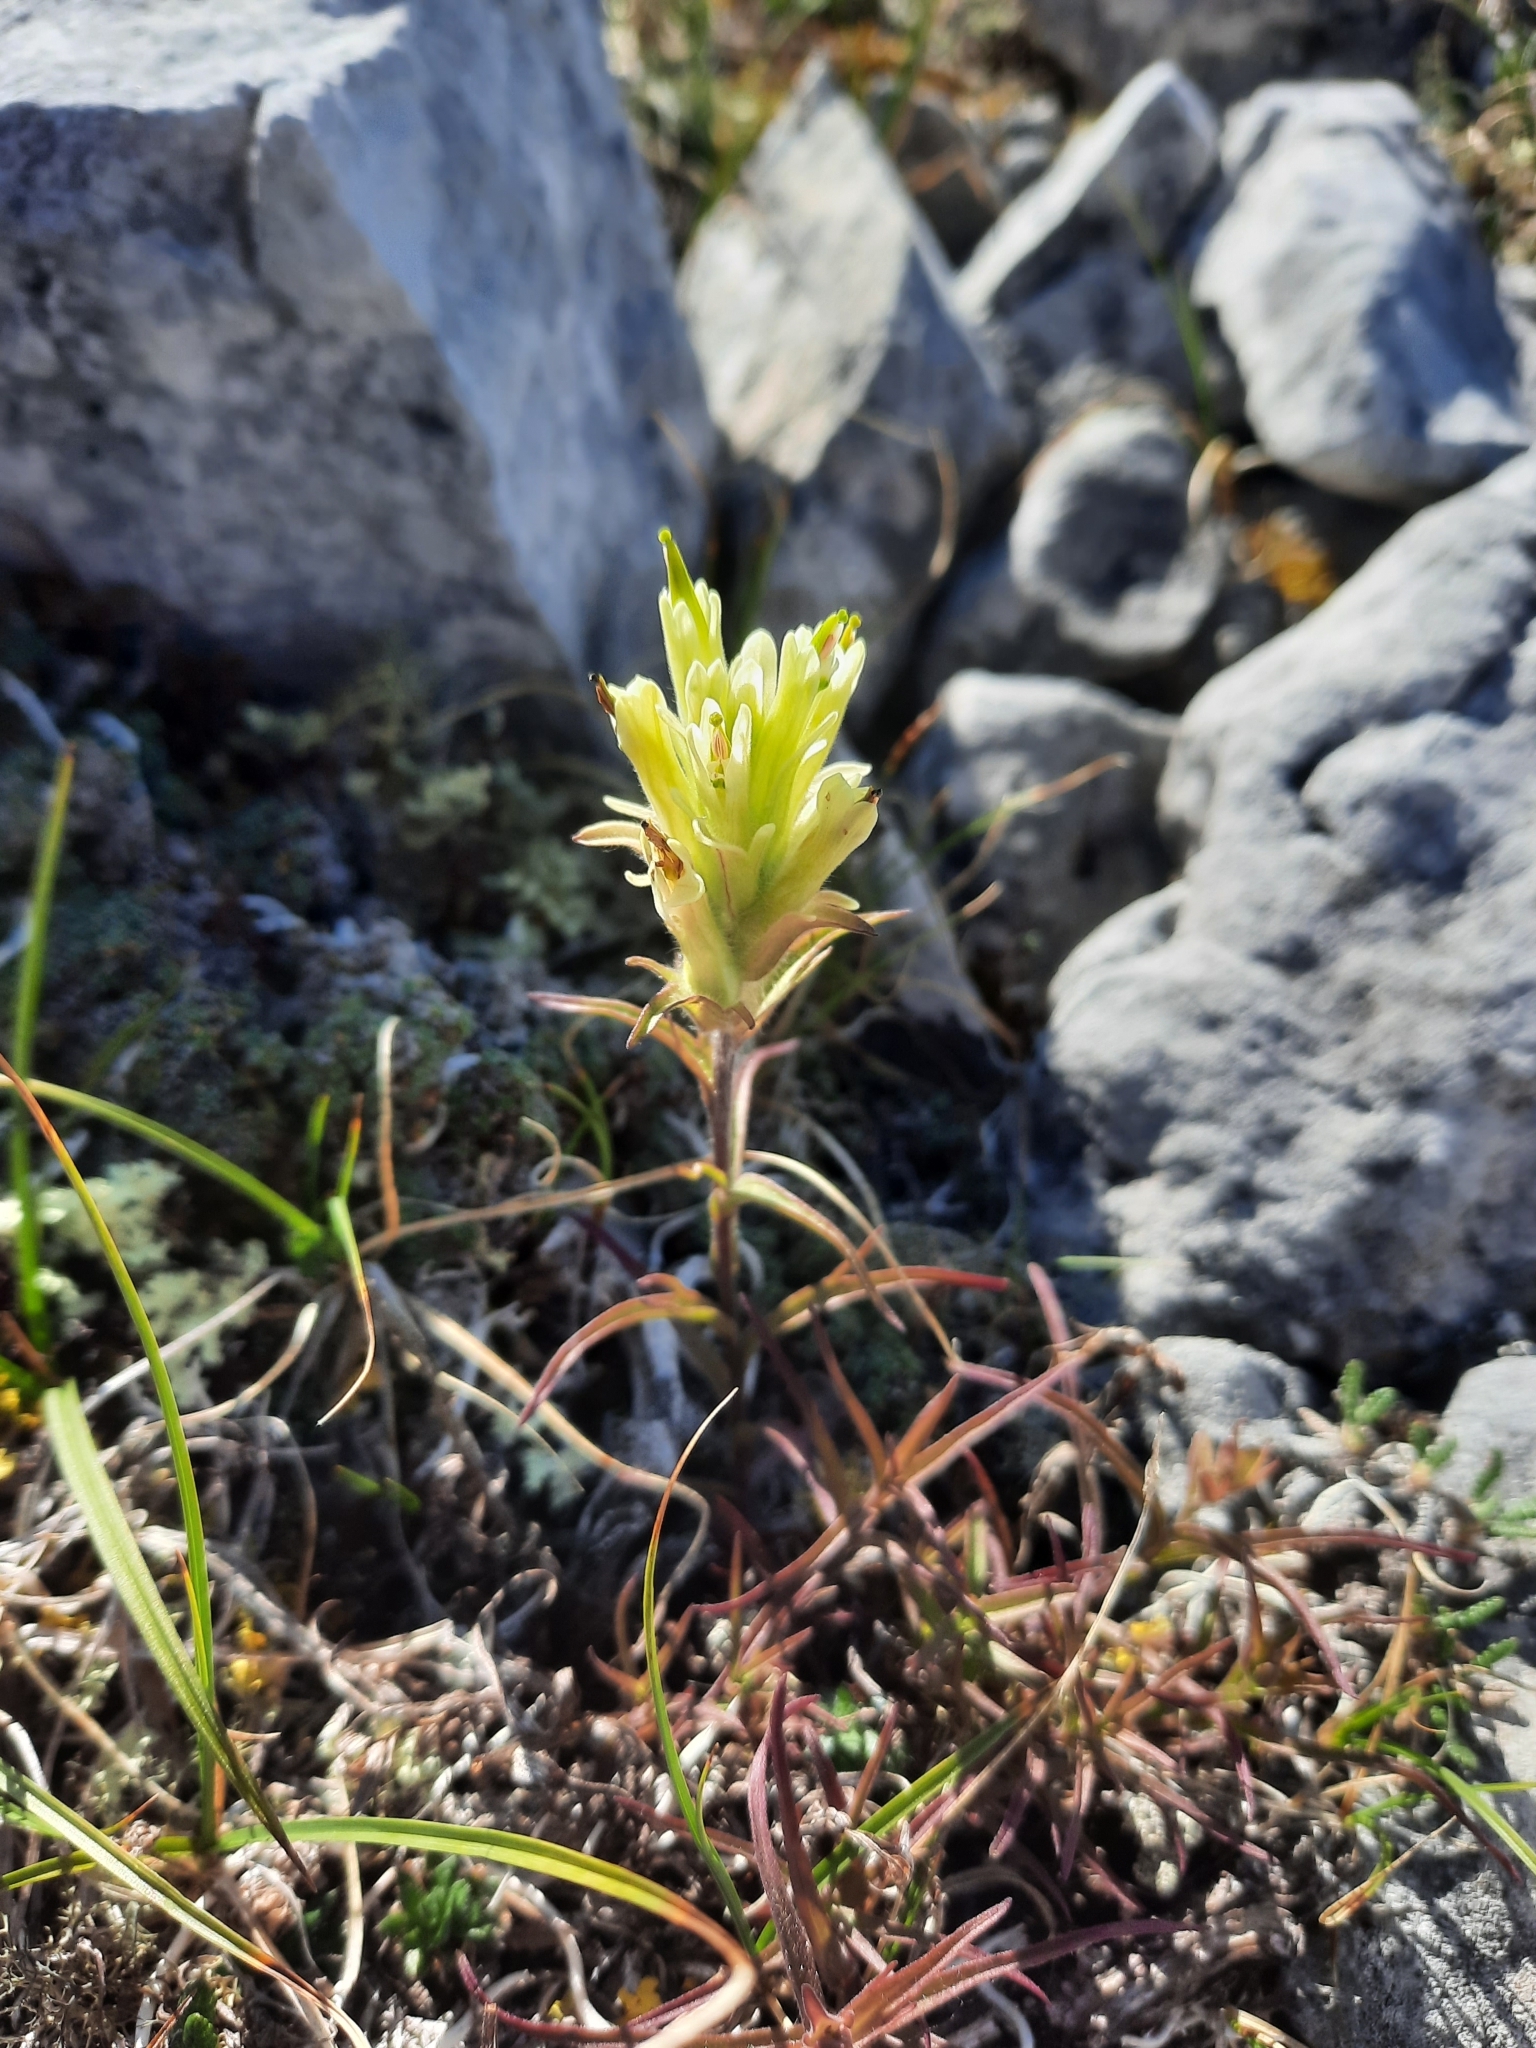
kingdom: Plantae
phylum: Tracheophyta
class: Magnoliopsida
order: Lamiales
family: Orobanchaceae
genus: Castilleja
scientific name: Castilleja hyperborea
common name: Northern paintbrush
